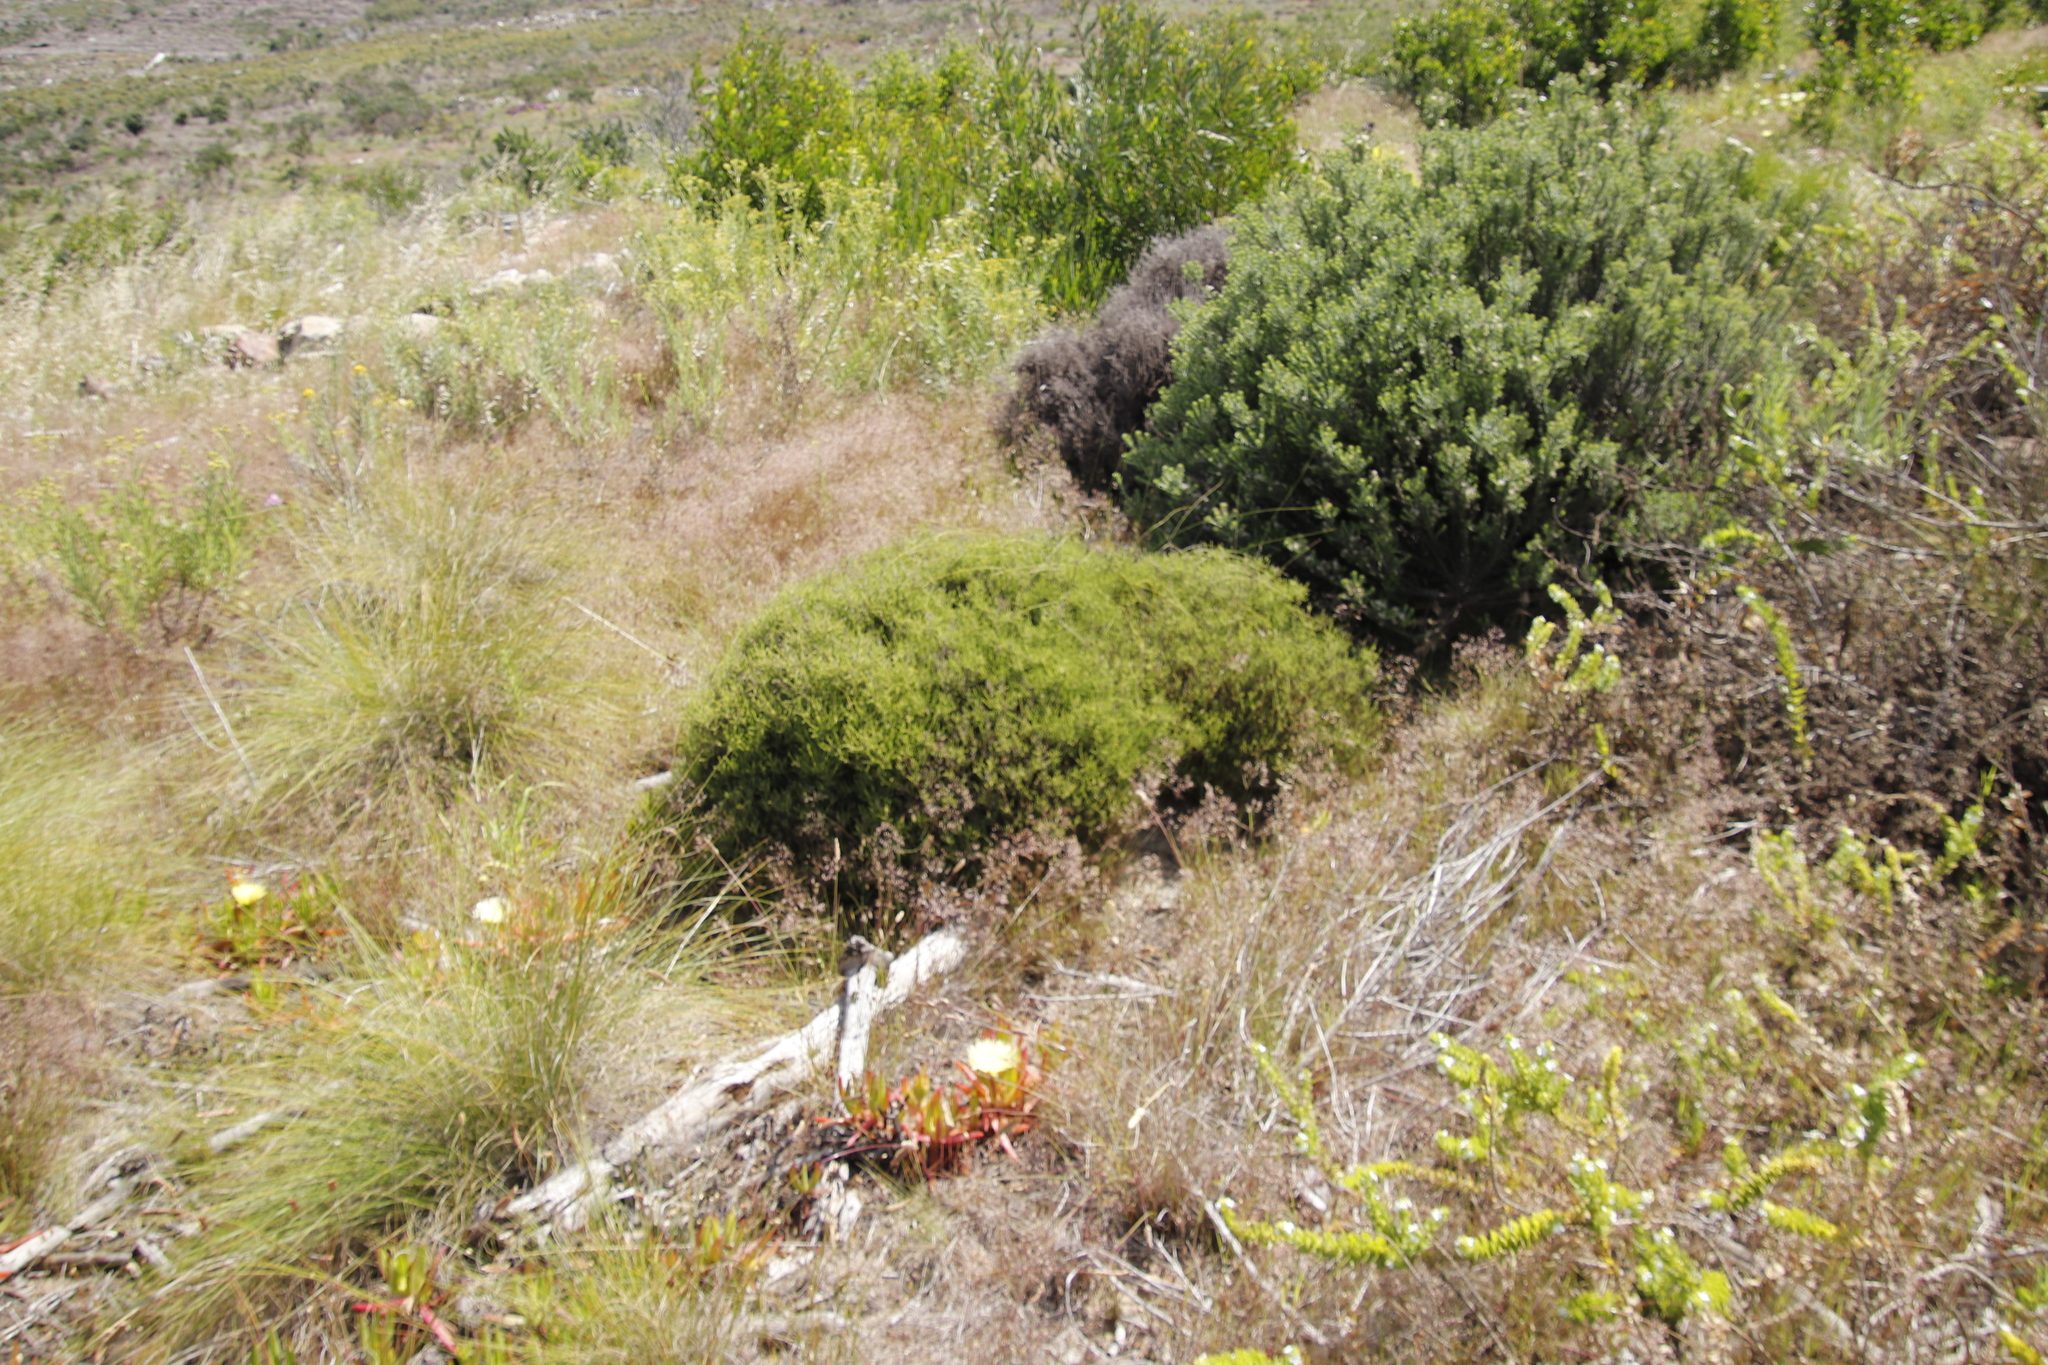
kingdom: Plantae
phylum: Tracheophyta
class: Magnoliopsida
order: Asterales
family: Asteraceae
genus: Myrovernix
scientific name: Myrovernix scaber
